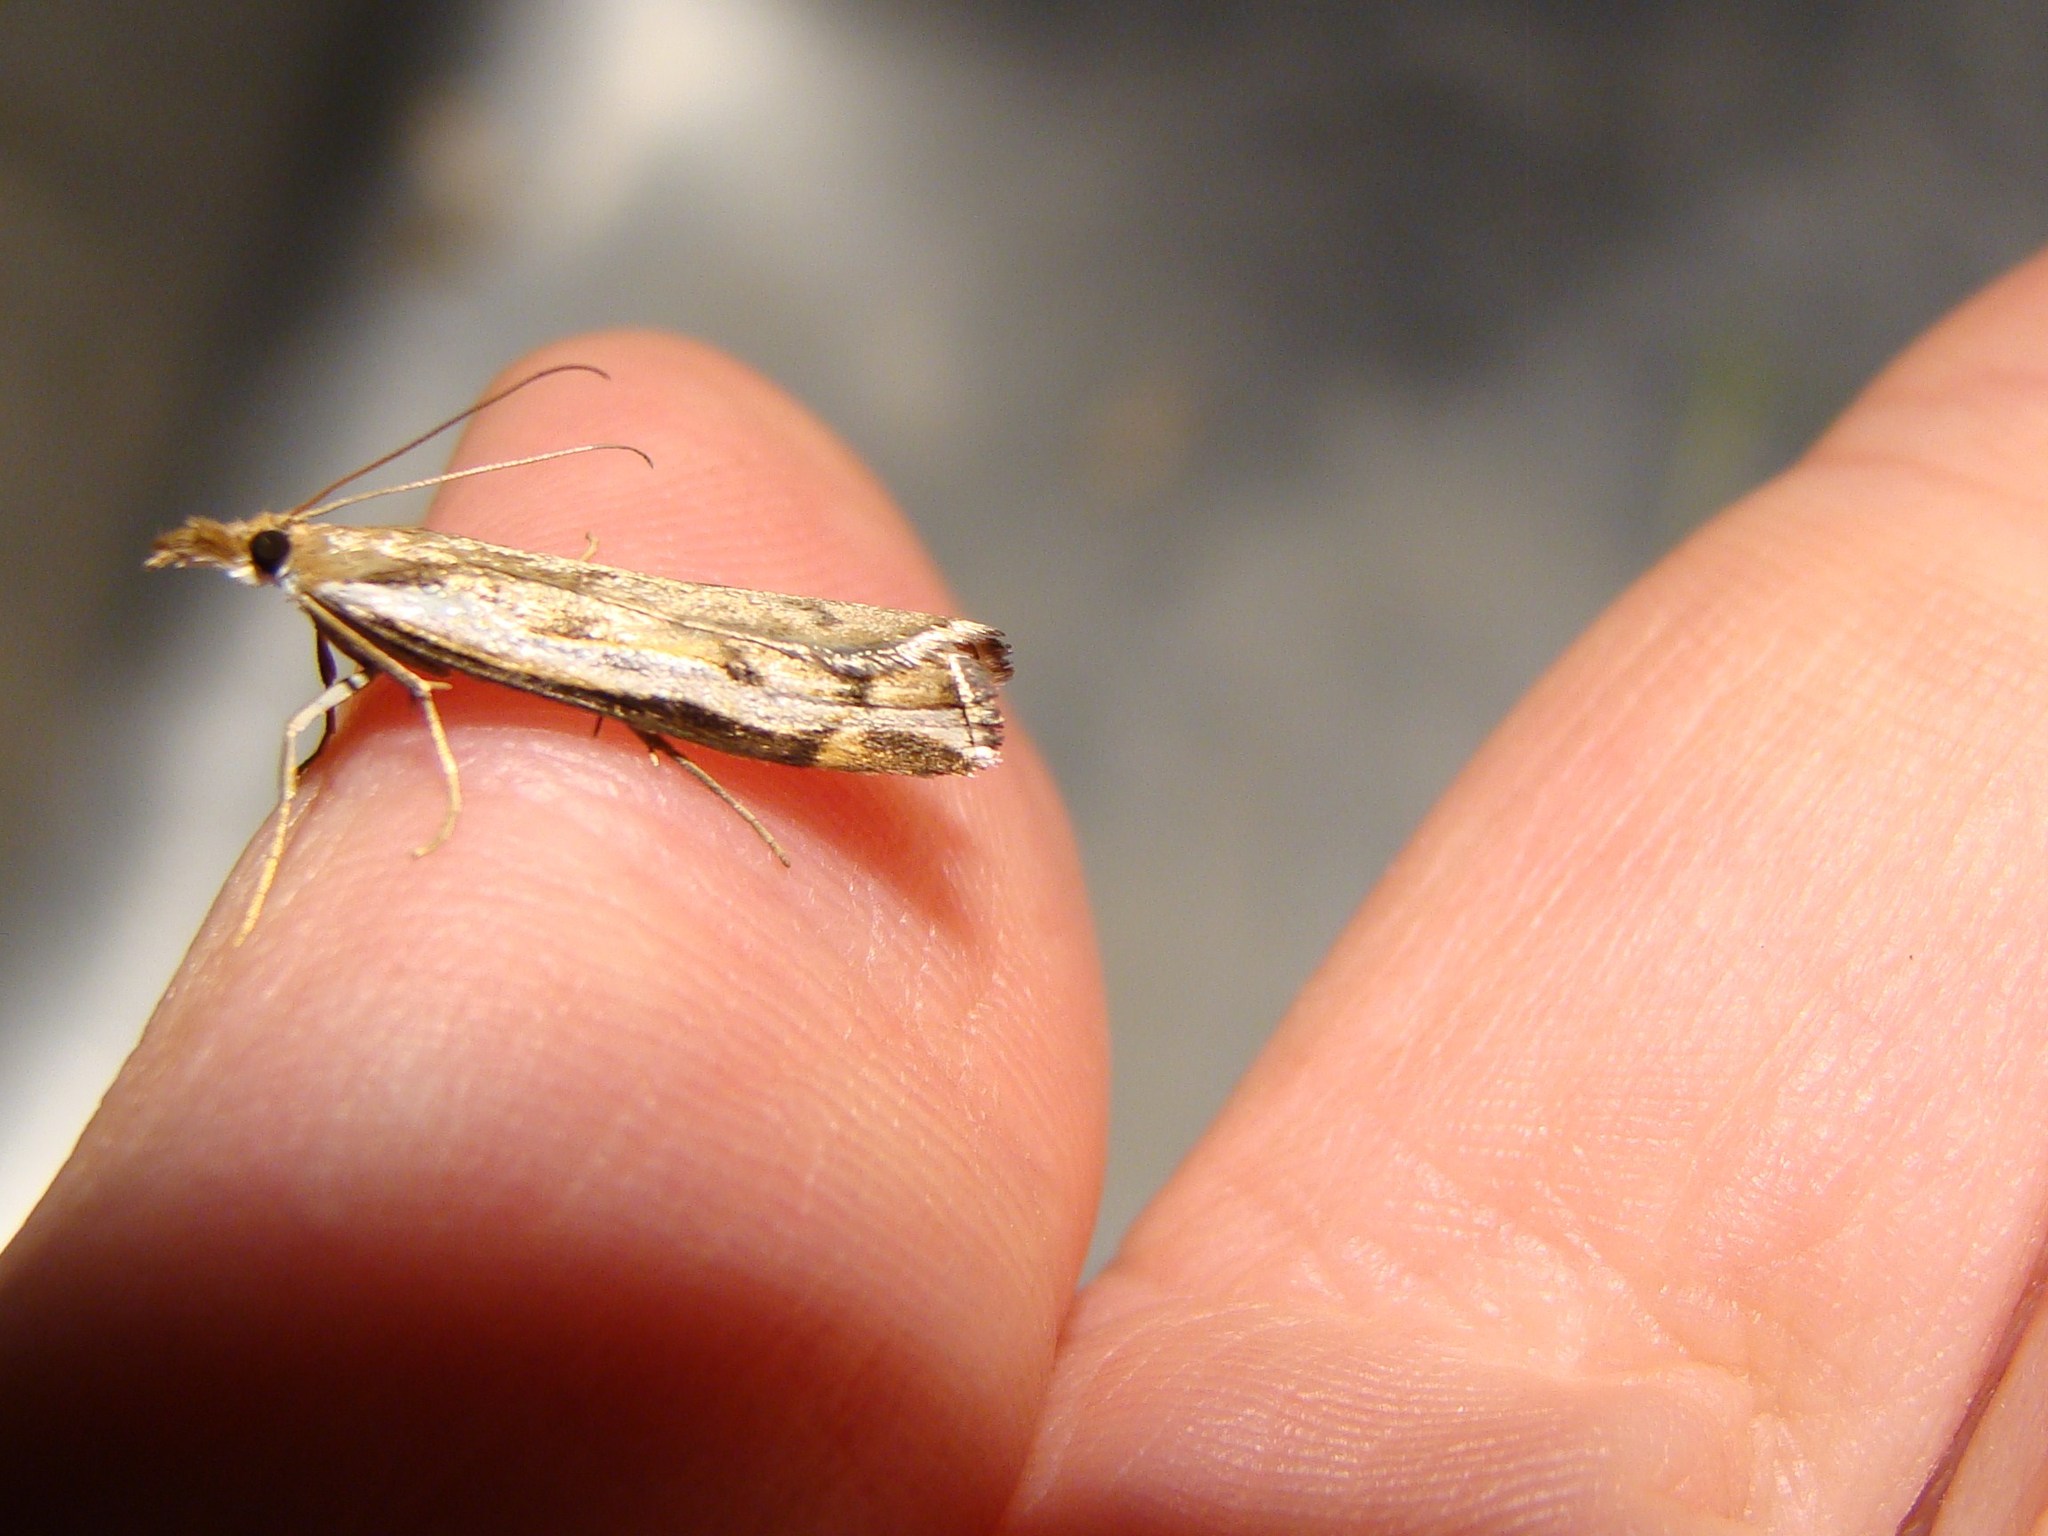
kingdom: Animalia
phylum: Arthropoda
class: Insecta
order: Lepidoptera
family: Crambidae
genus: Orocrambus
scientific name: Orocrambus flexuosellus
